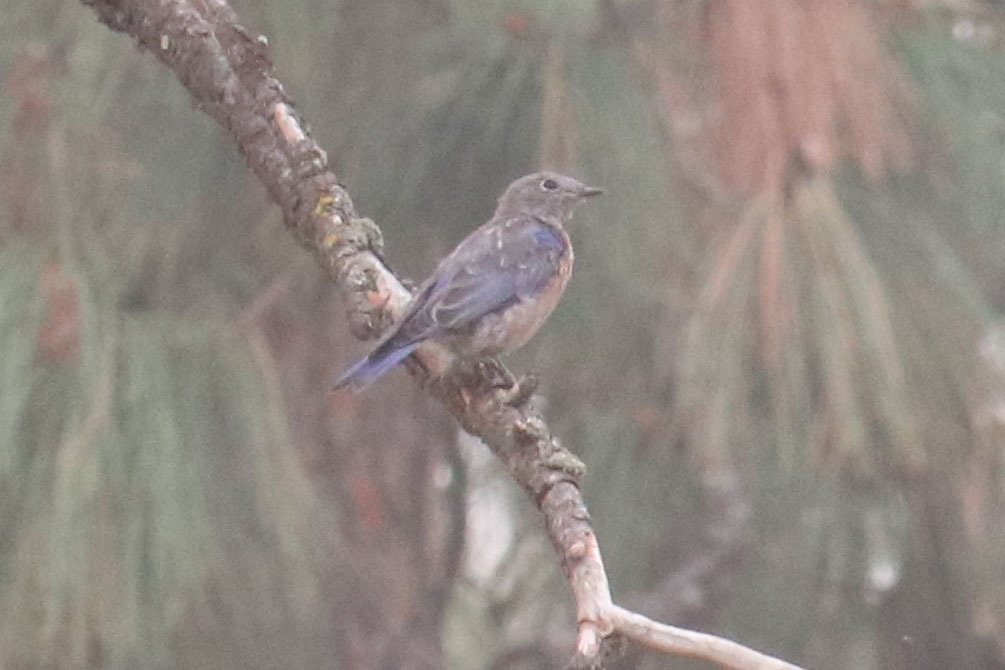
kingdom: Animalia
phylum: Chordata
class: Aves
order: Passeriformes
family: Turdidae
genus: Sialia
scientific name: Sialia mexicana
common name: Western bluebird
